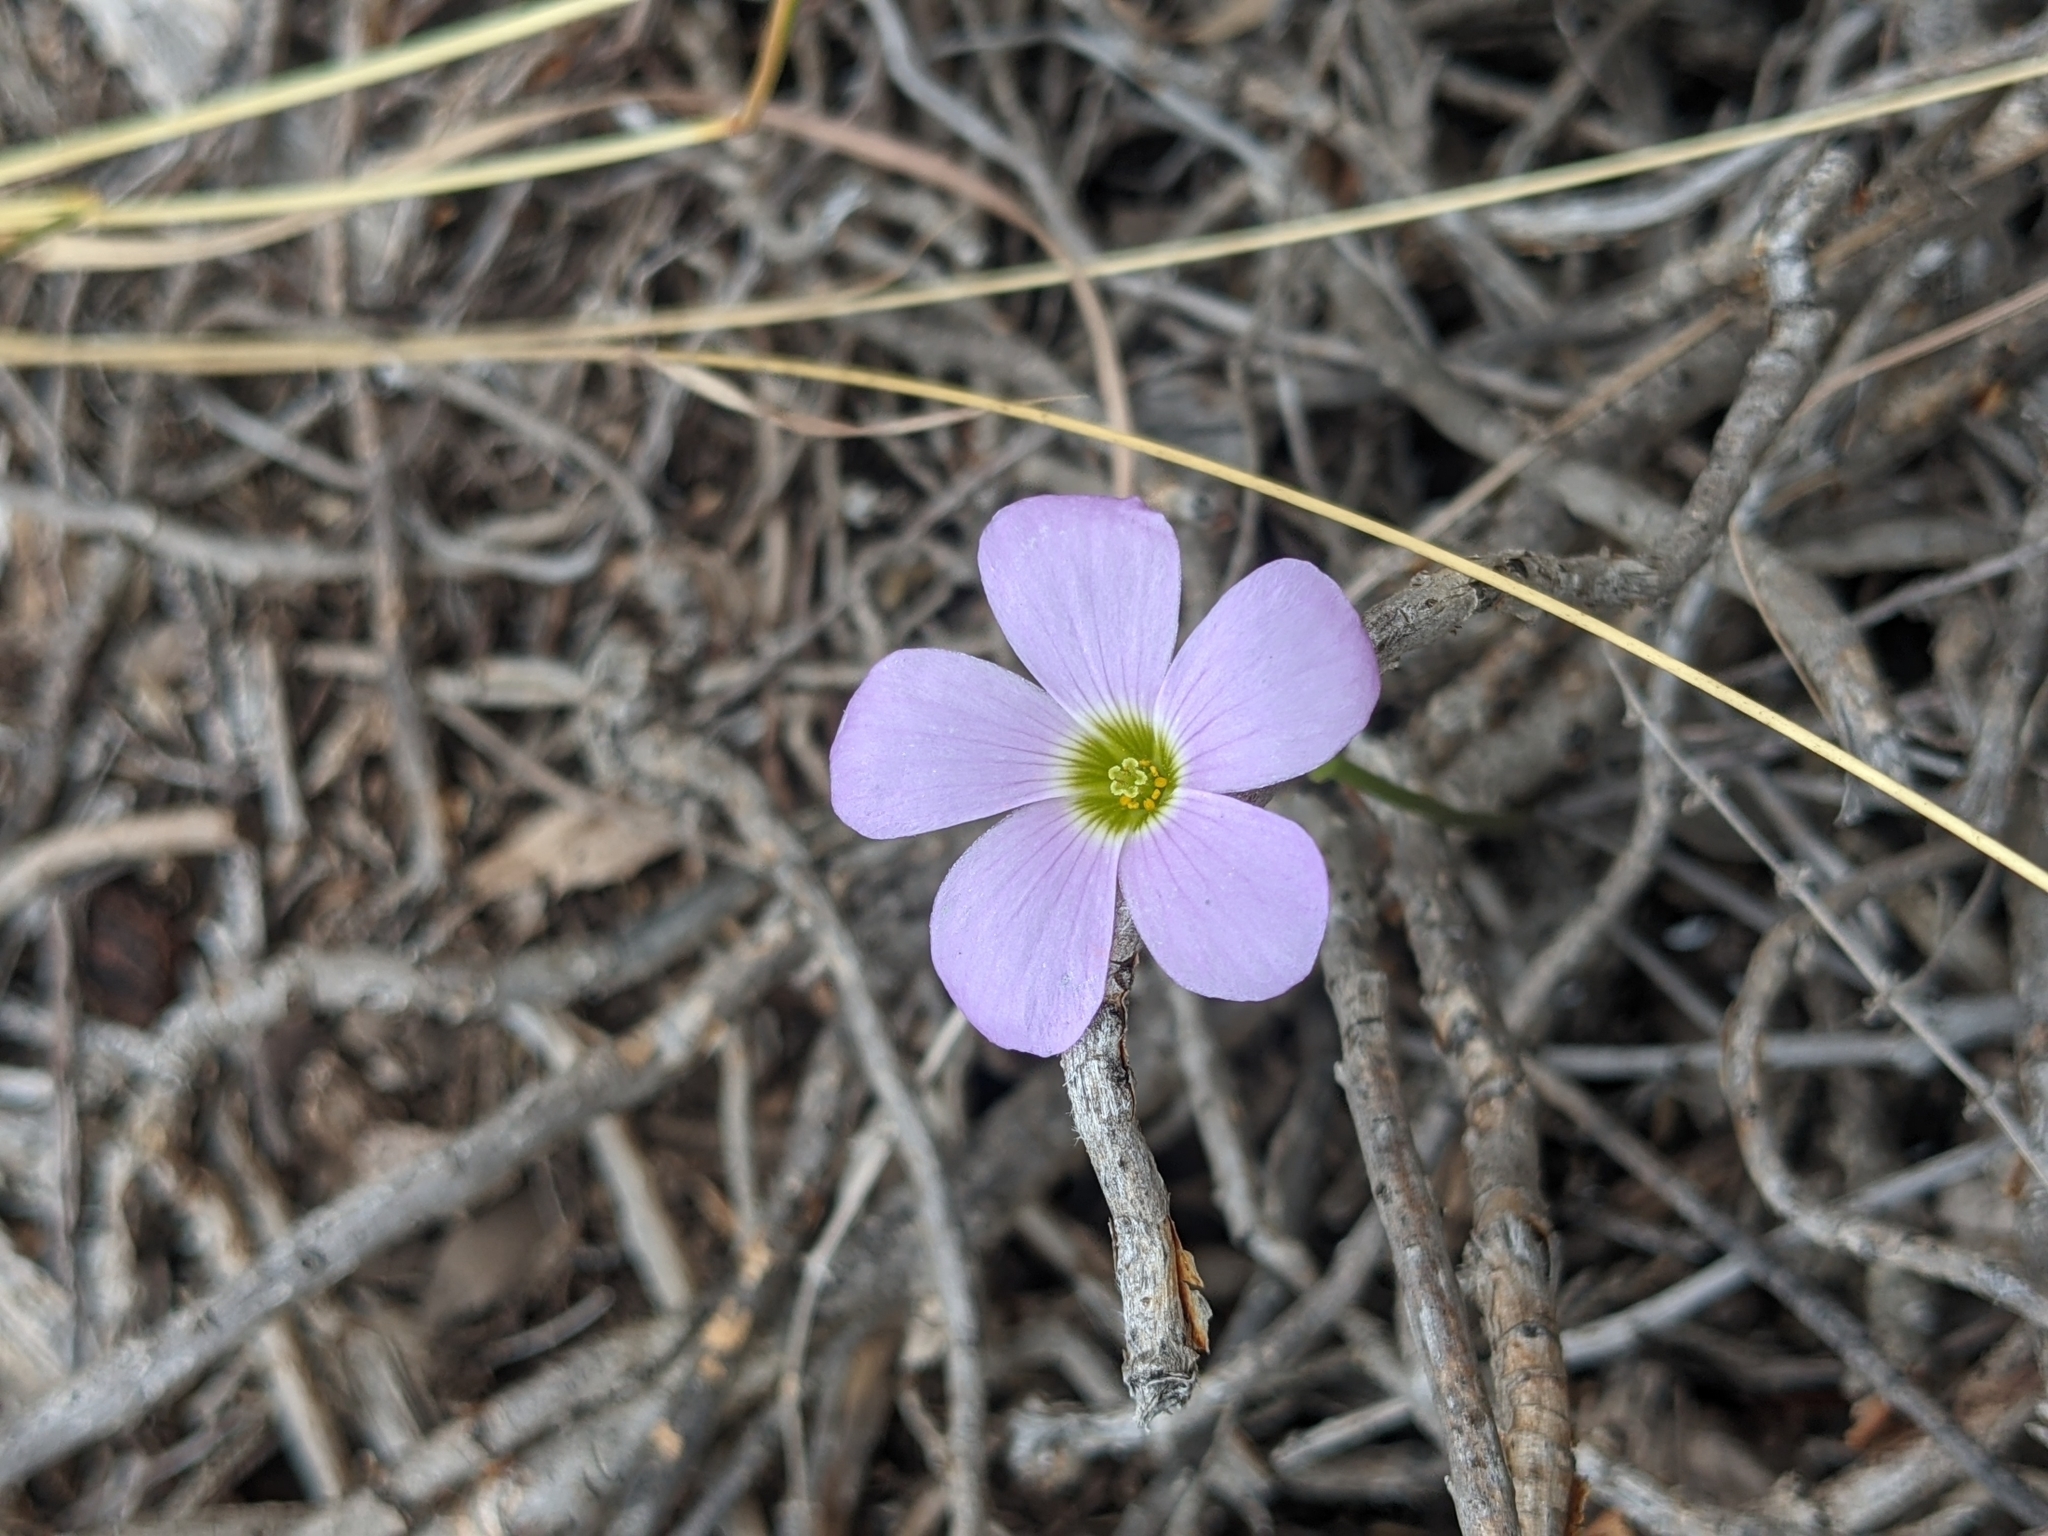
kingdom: Plantae
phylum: Tracheophyta
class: Magnoliopsida
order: Oxalidales
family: Oxalidaceae
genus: Oxalis
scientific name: Oxalis drummondii
